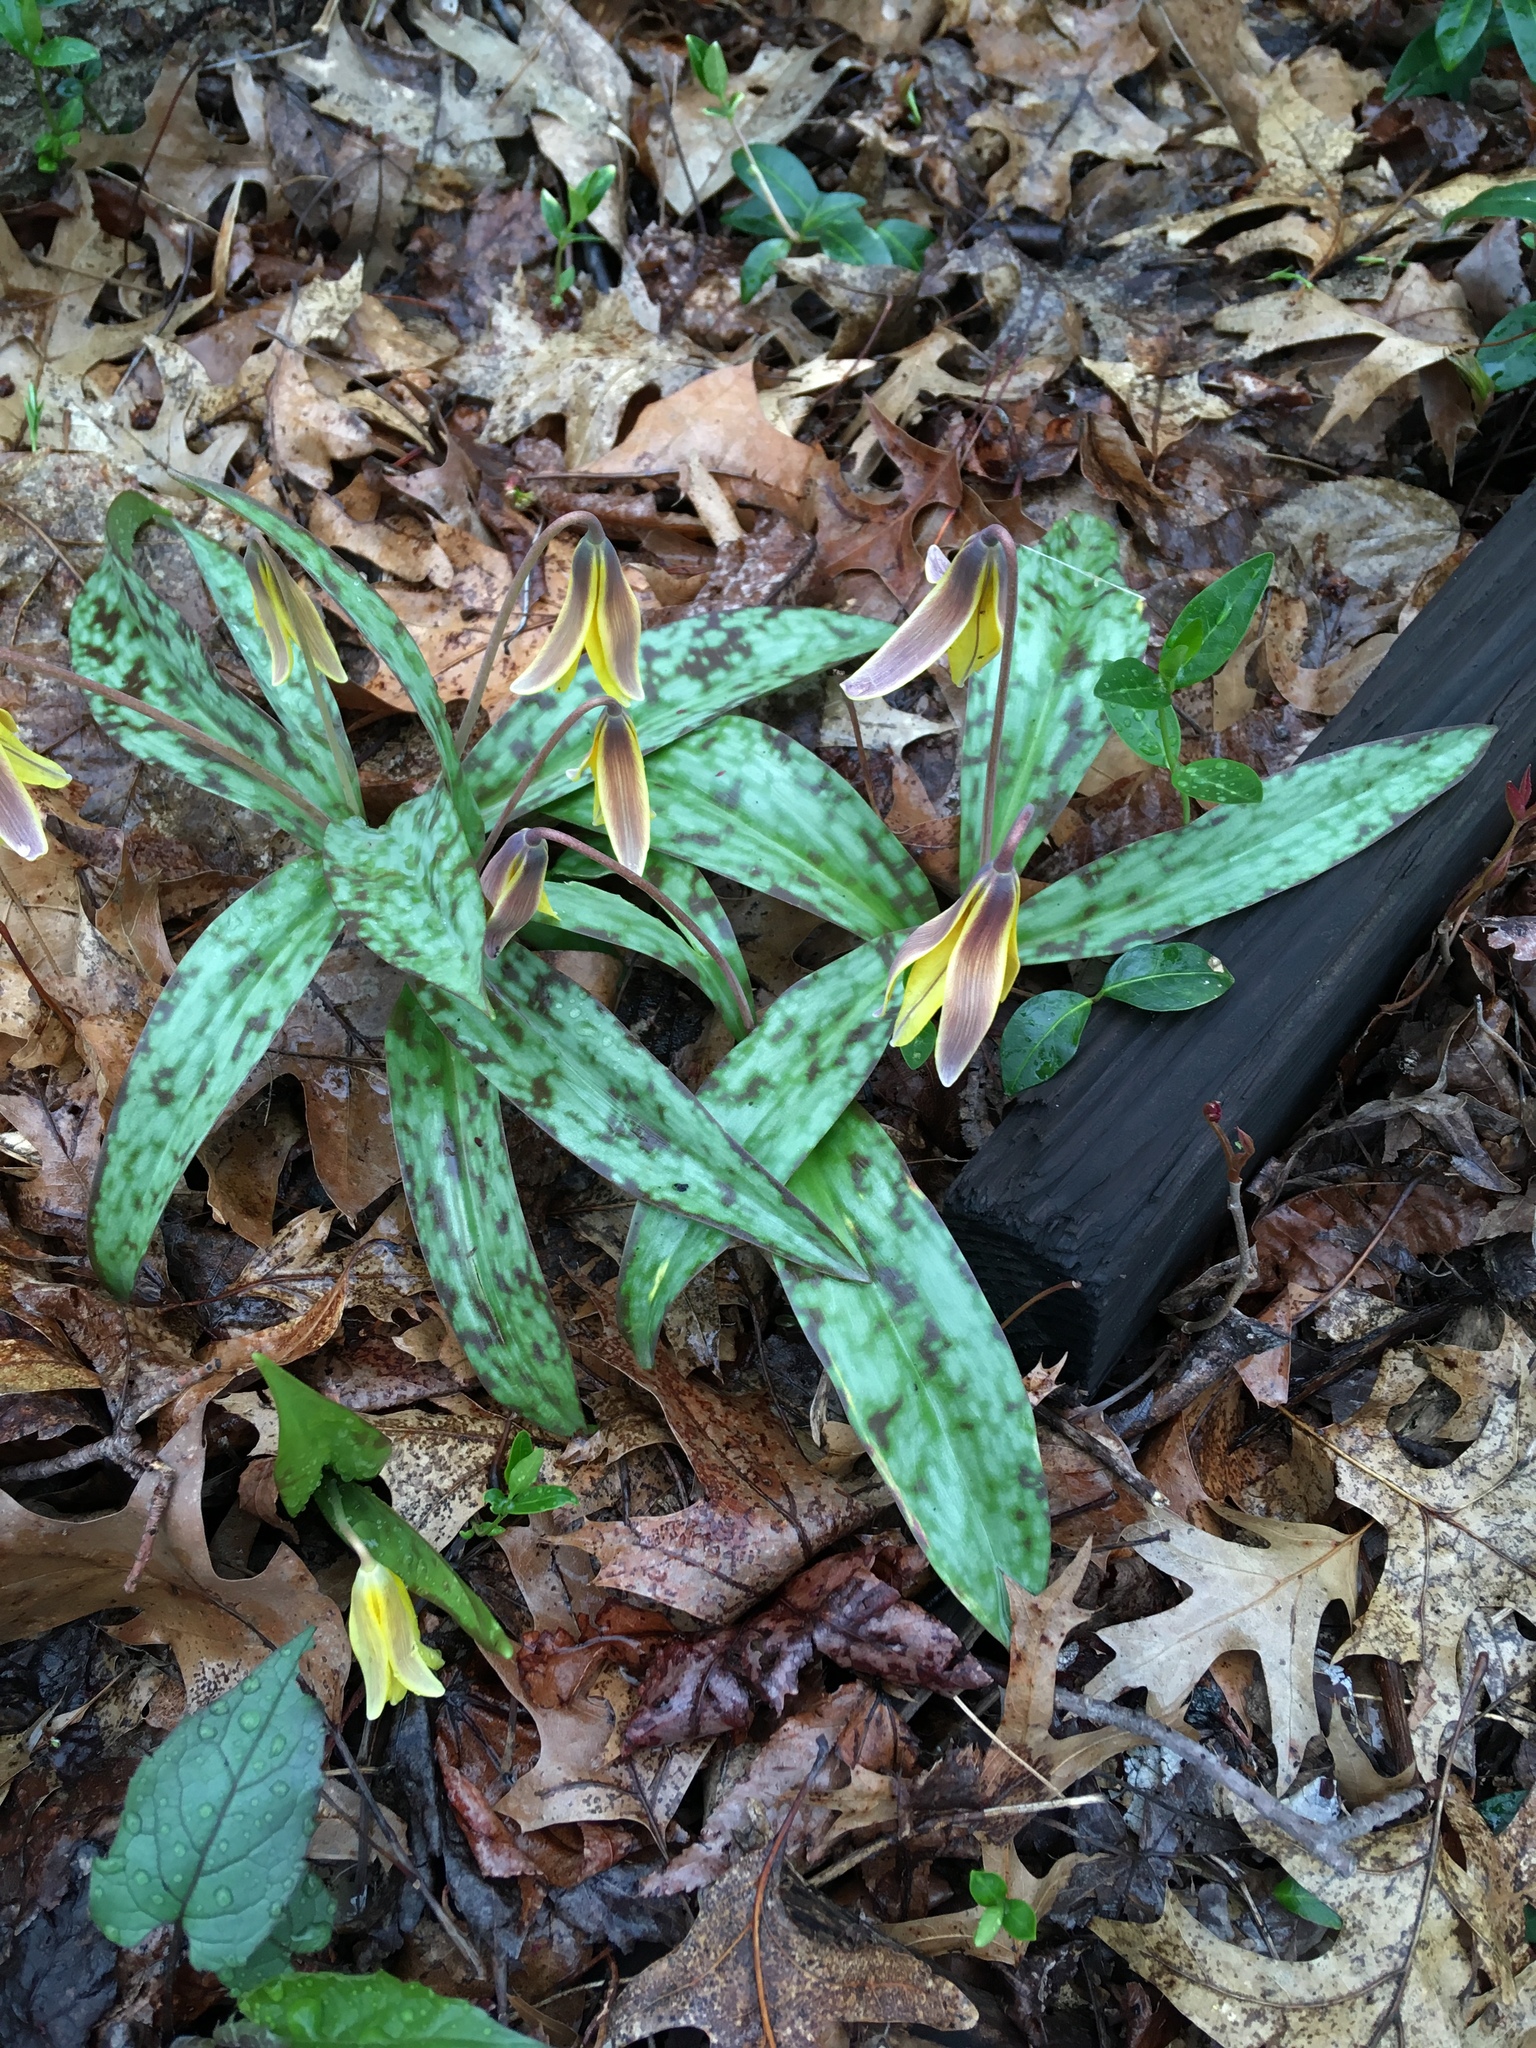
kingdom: Plantae
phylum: Tracheophyta
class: Liliopsida
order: Liliales
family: Liliaceae
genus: Erythronium
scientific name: Erythronium americanum
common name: Yellow adder's-tongue
